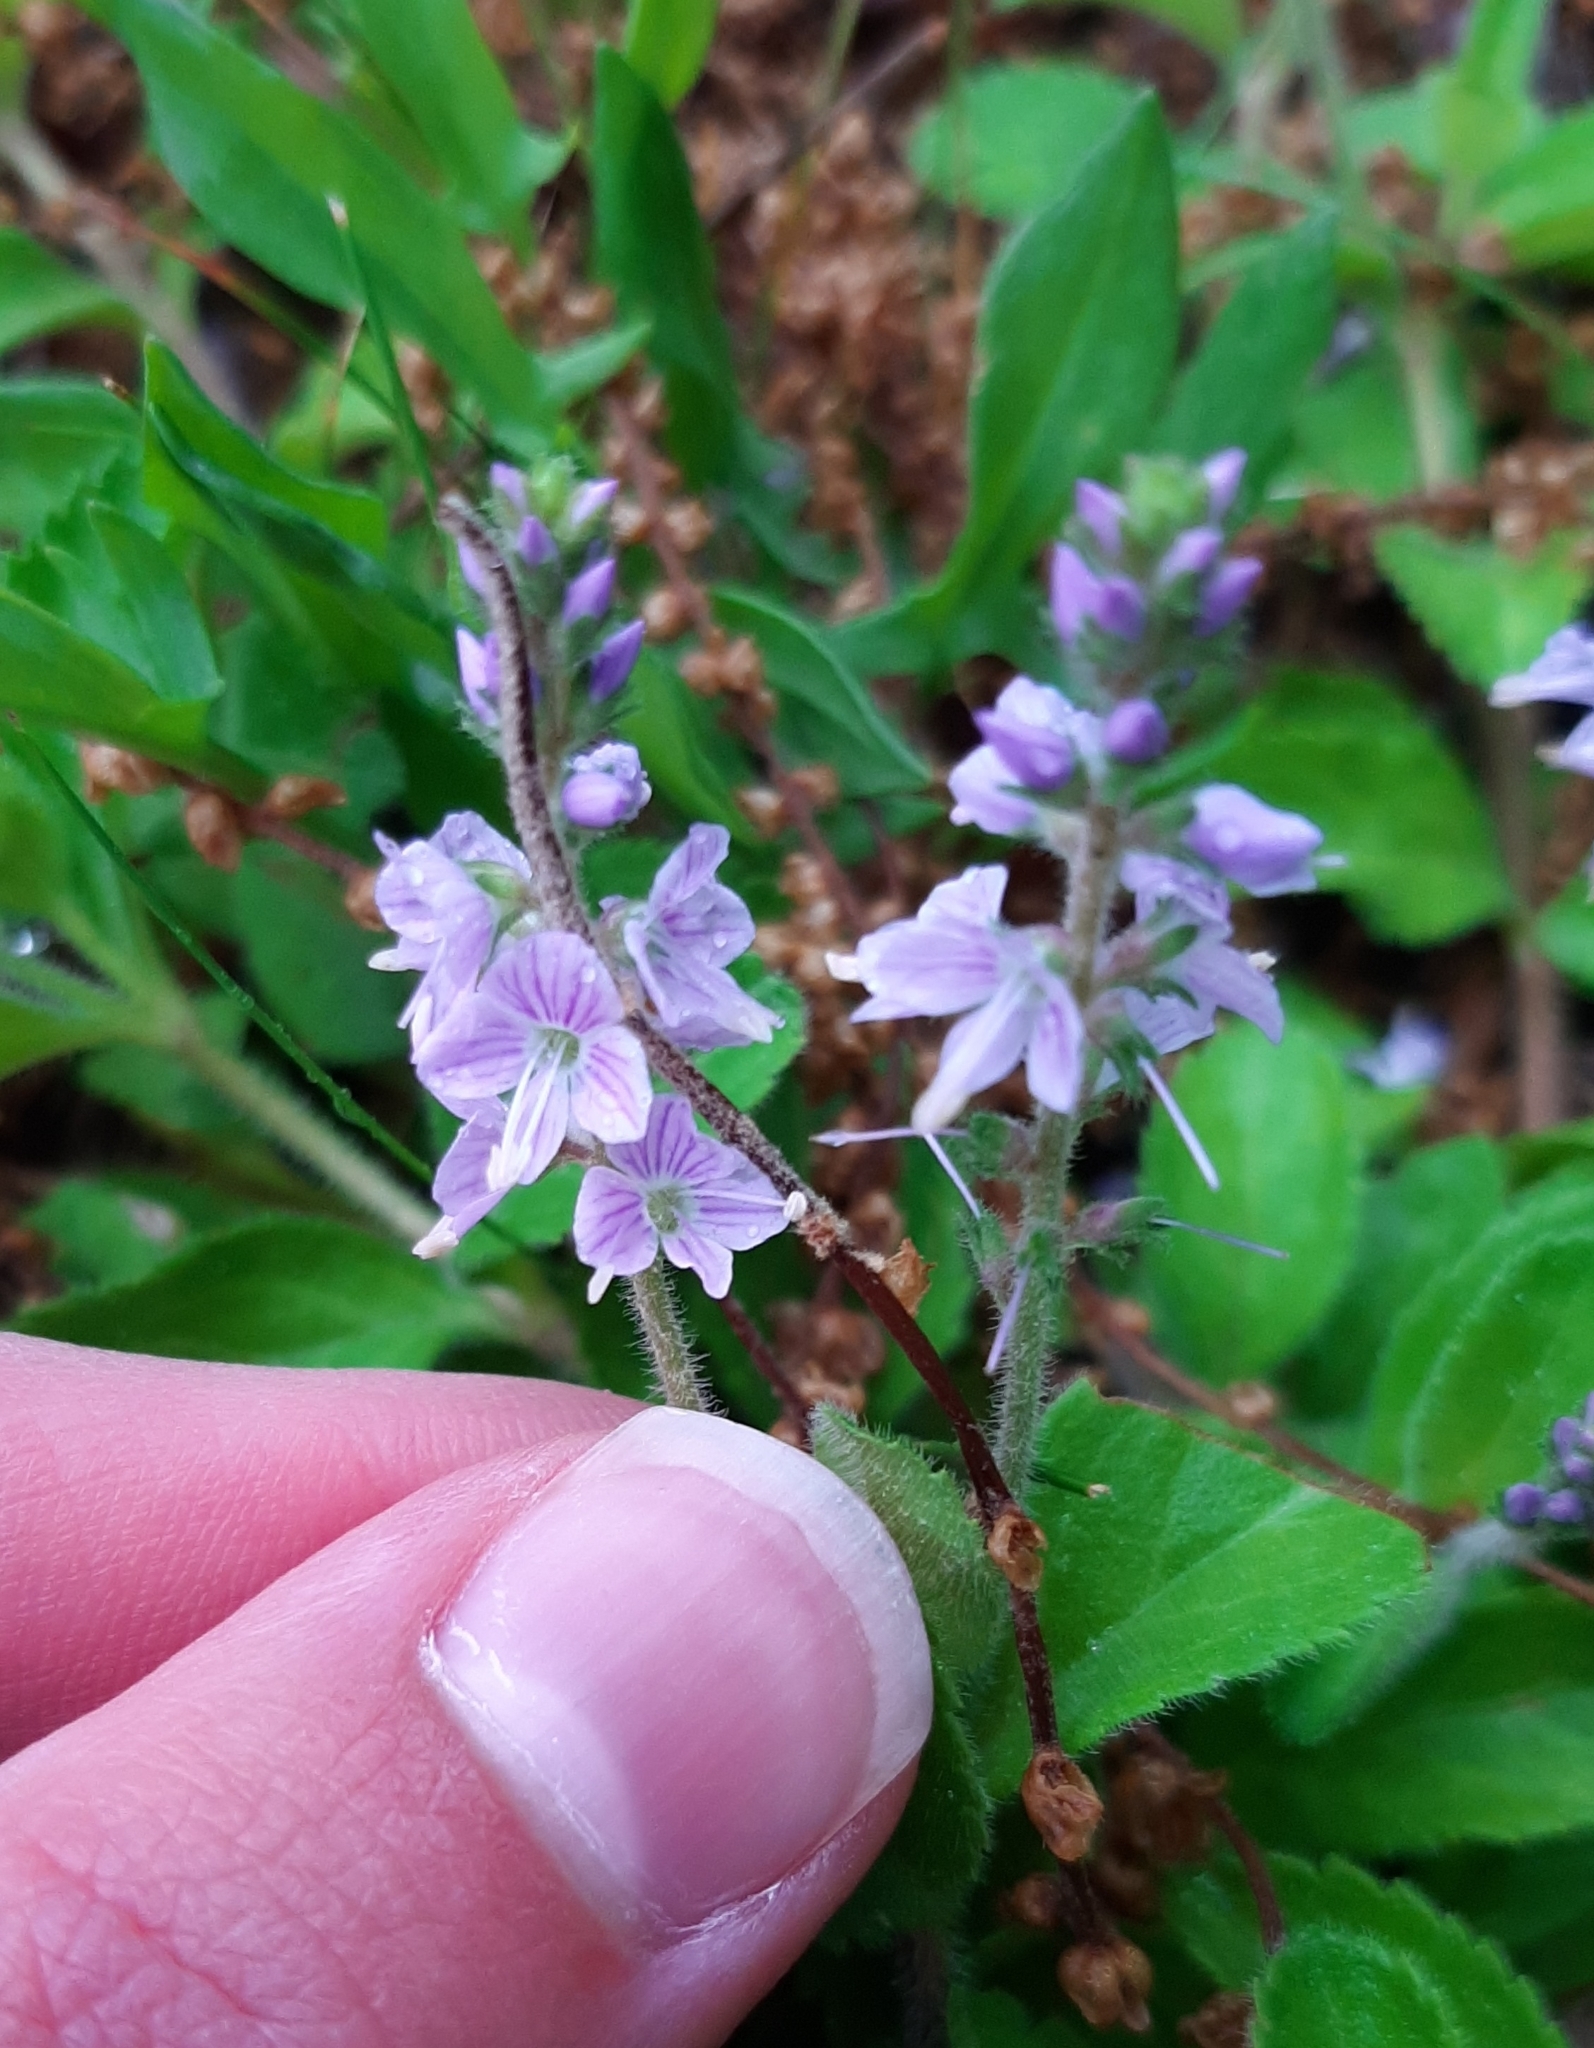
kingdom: Plantae
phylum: Tracheophyta
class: Magnoliopsida
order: Lamiales
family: Plantaginaceae
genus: Veronica
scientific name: Veronica officinalis
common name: Common speedwell
